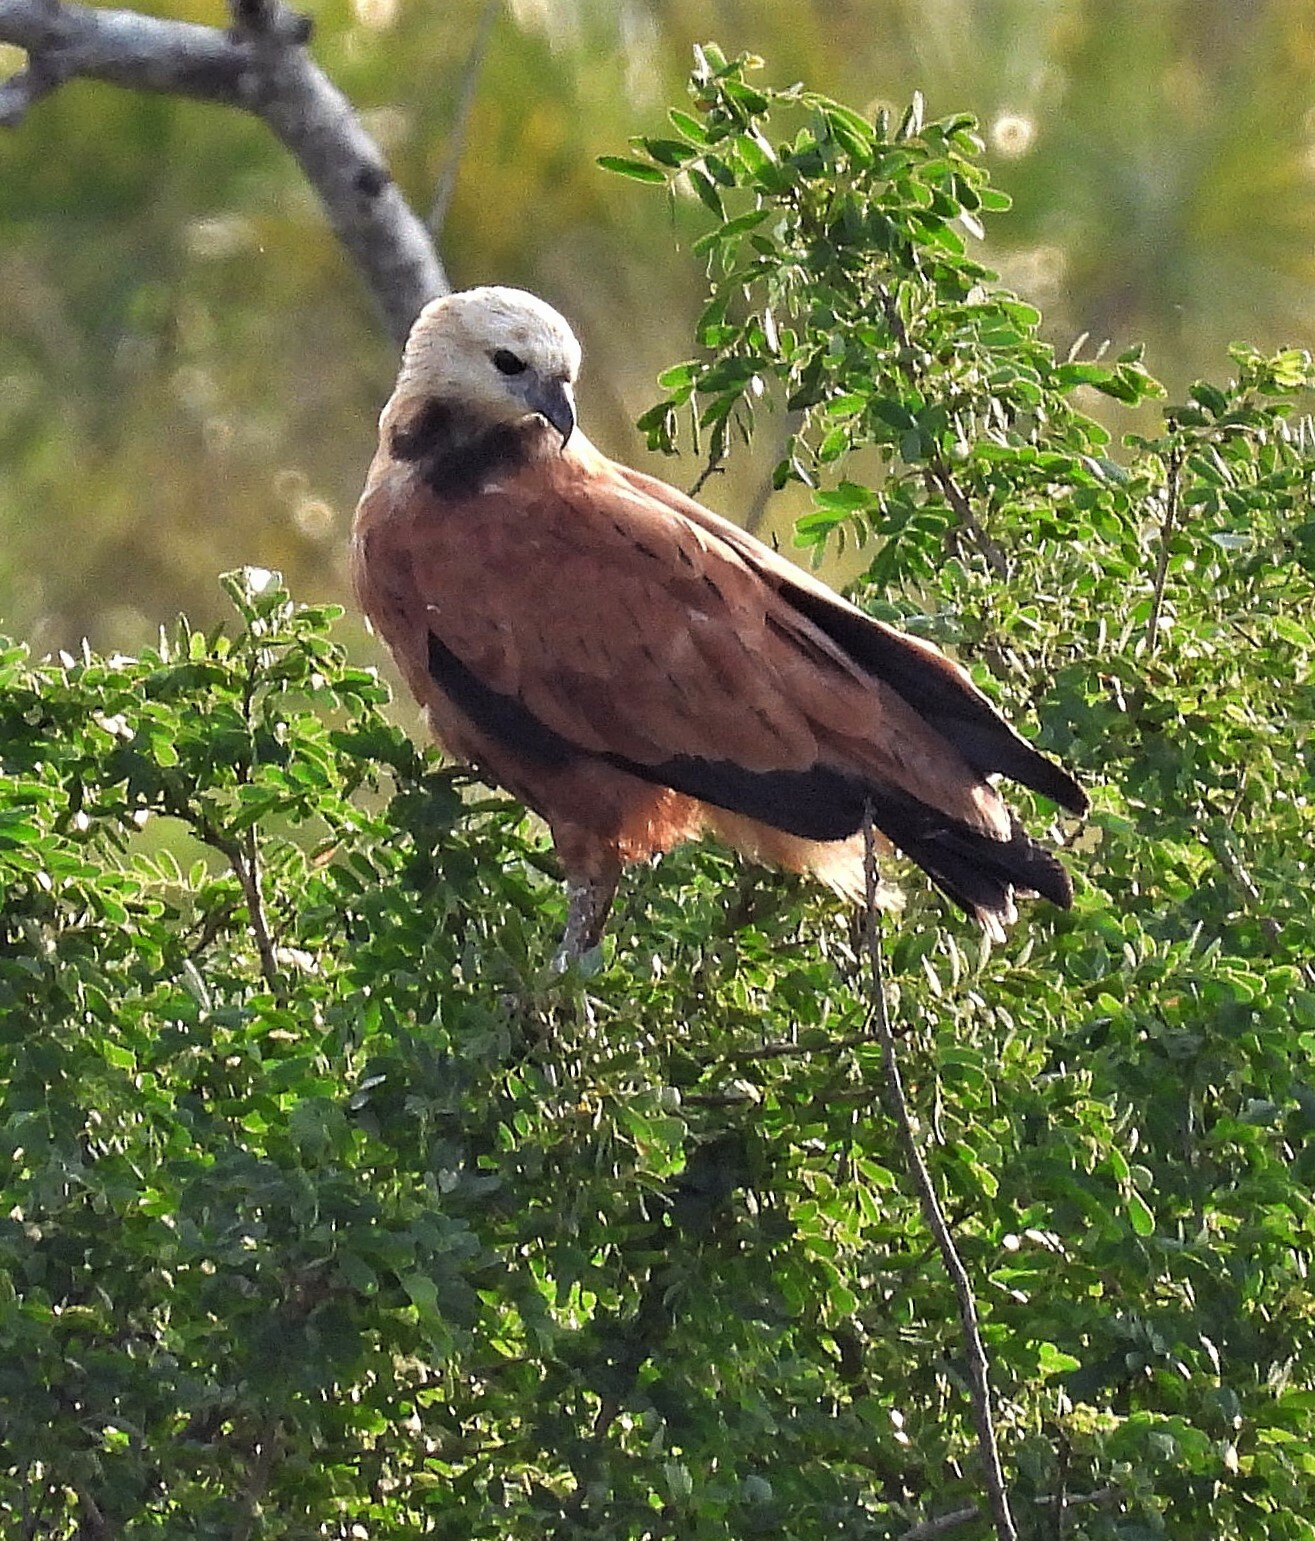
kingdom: Animalia
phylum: Chordata
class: Aves
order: Accipitriformes
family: Accipitridae
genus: Busarellus
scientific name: Busarellus nigricollis
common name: Black-collared hawk
